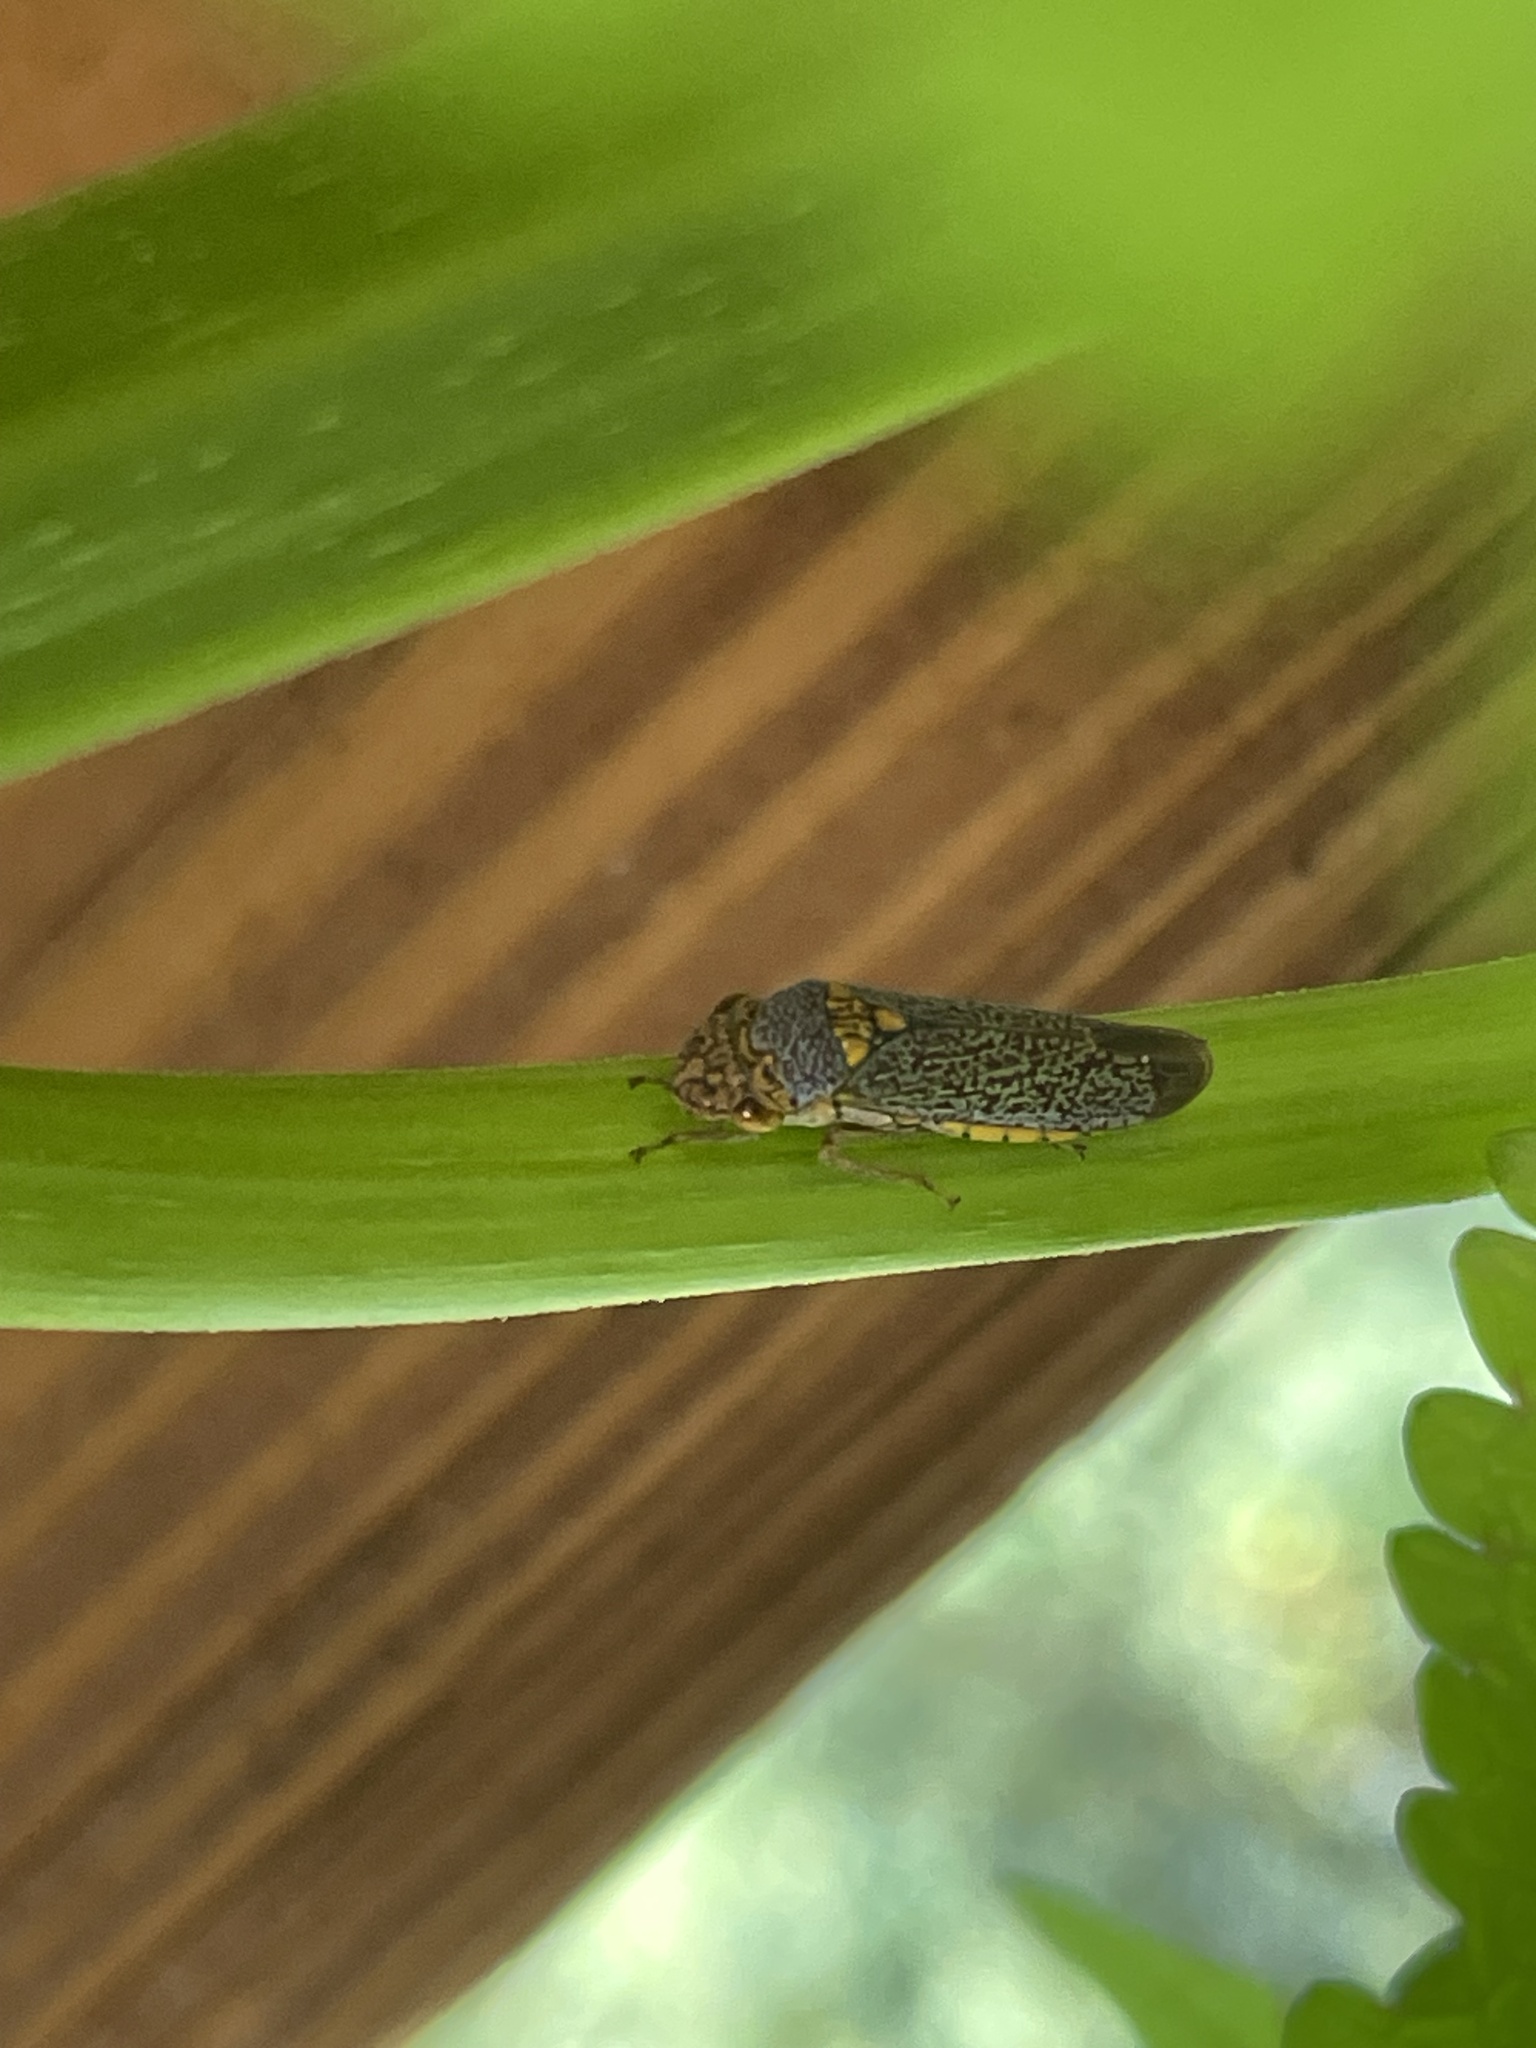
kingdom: Animalia
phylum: Arthropoda
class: Insecta
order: Hemiptera
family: Cicadellidae
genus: Oncometopia
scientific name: Oncometopia orbona
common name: Broad-headed sharpshooter
